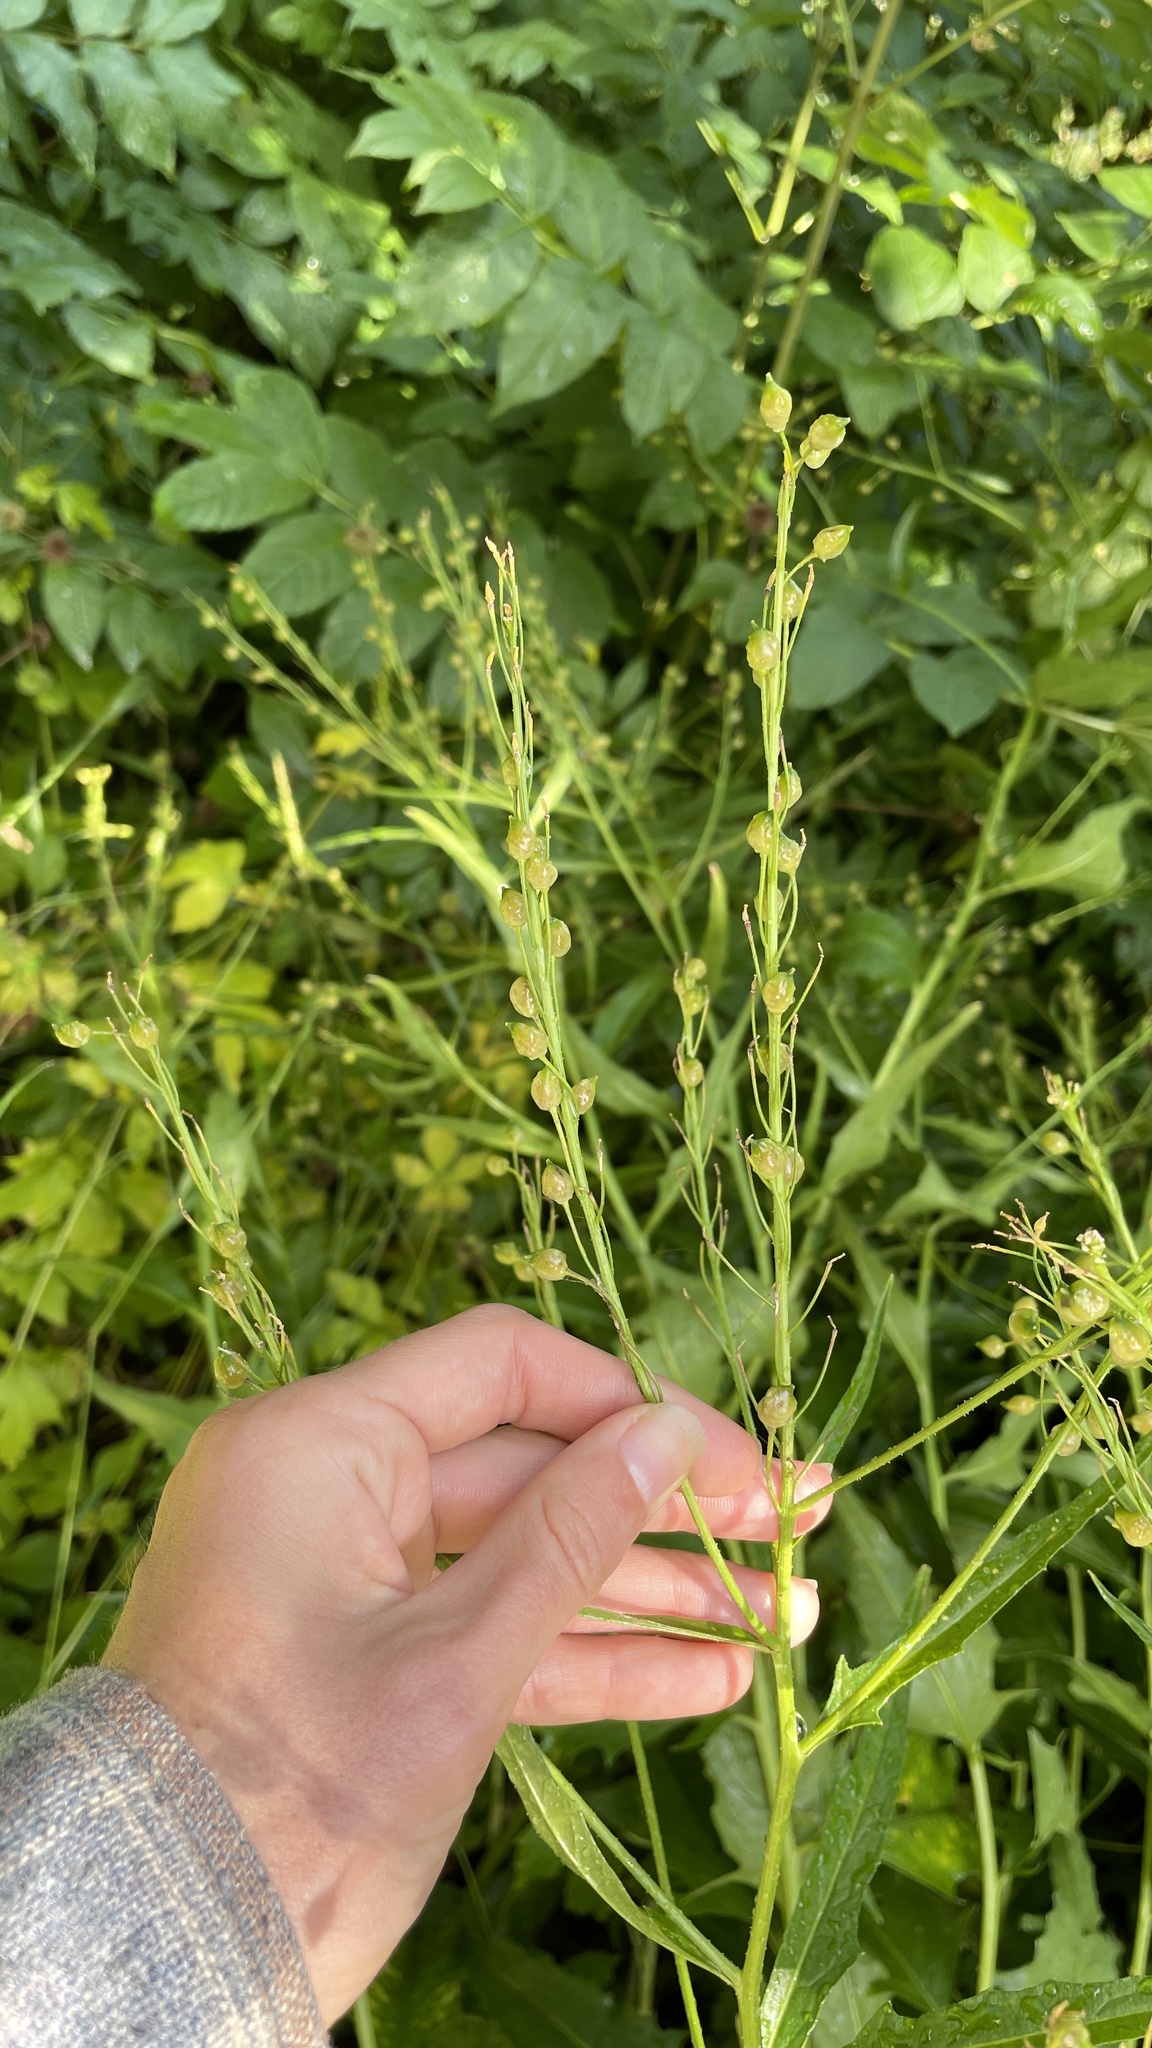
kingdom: Plantae
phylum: Tracheophyta
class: Magnoliopsida
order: Brassicales
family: Brassicaceae
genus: Bunias
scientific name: Bunias orientalis
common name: Warty-cabbage
